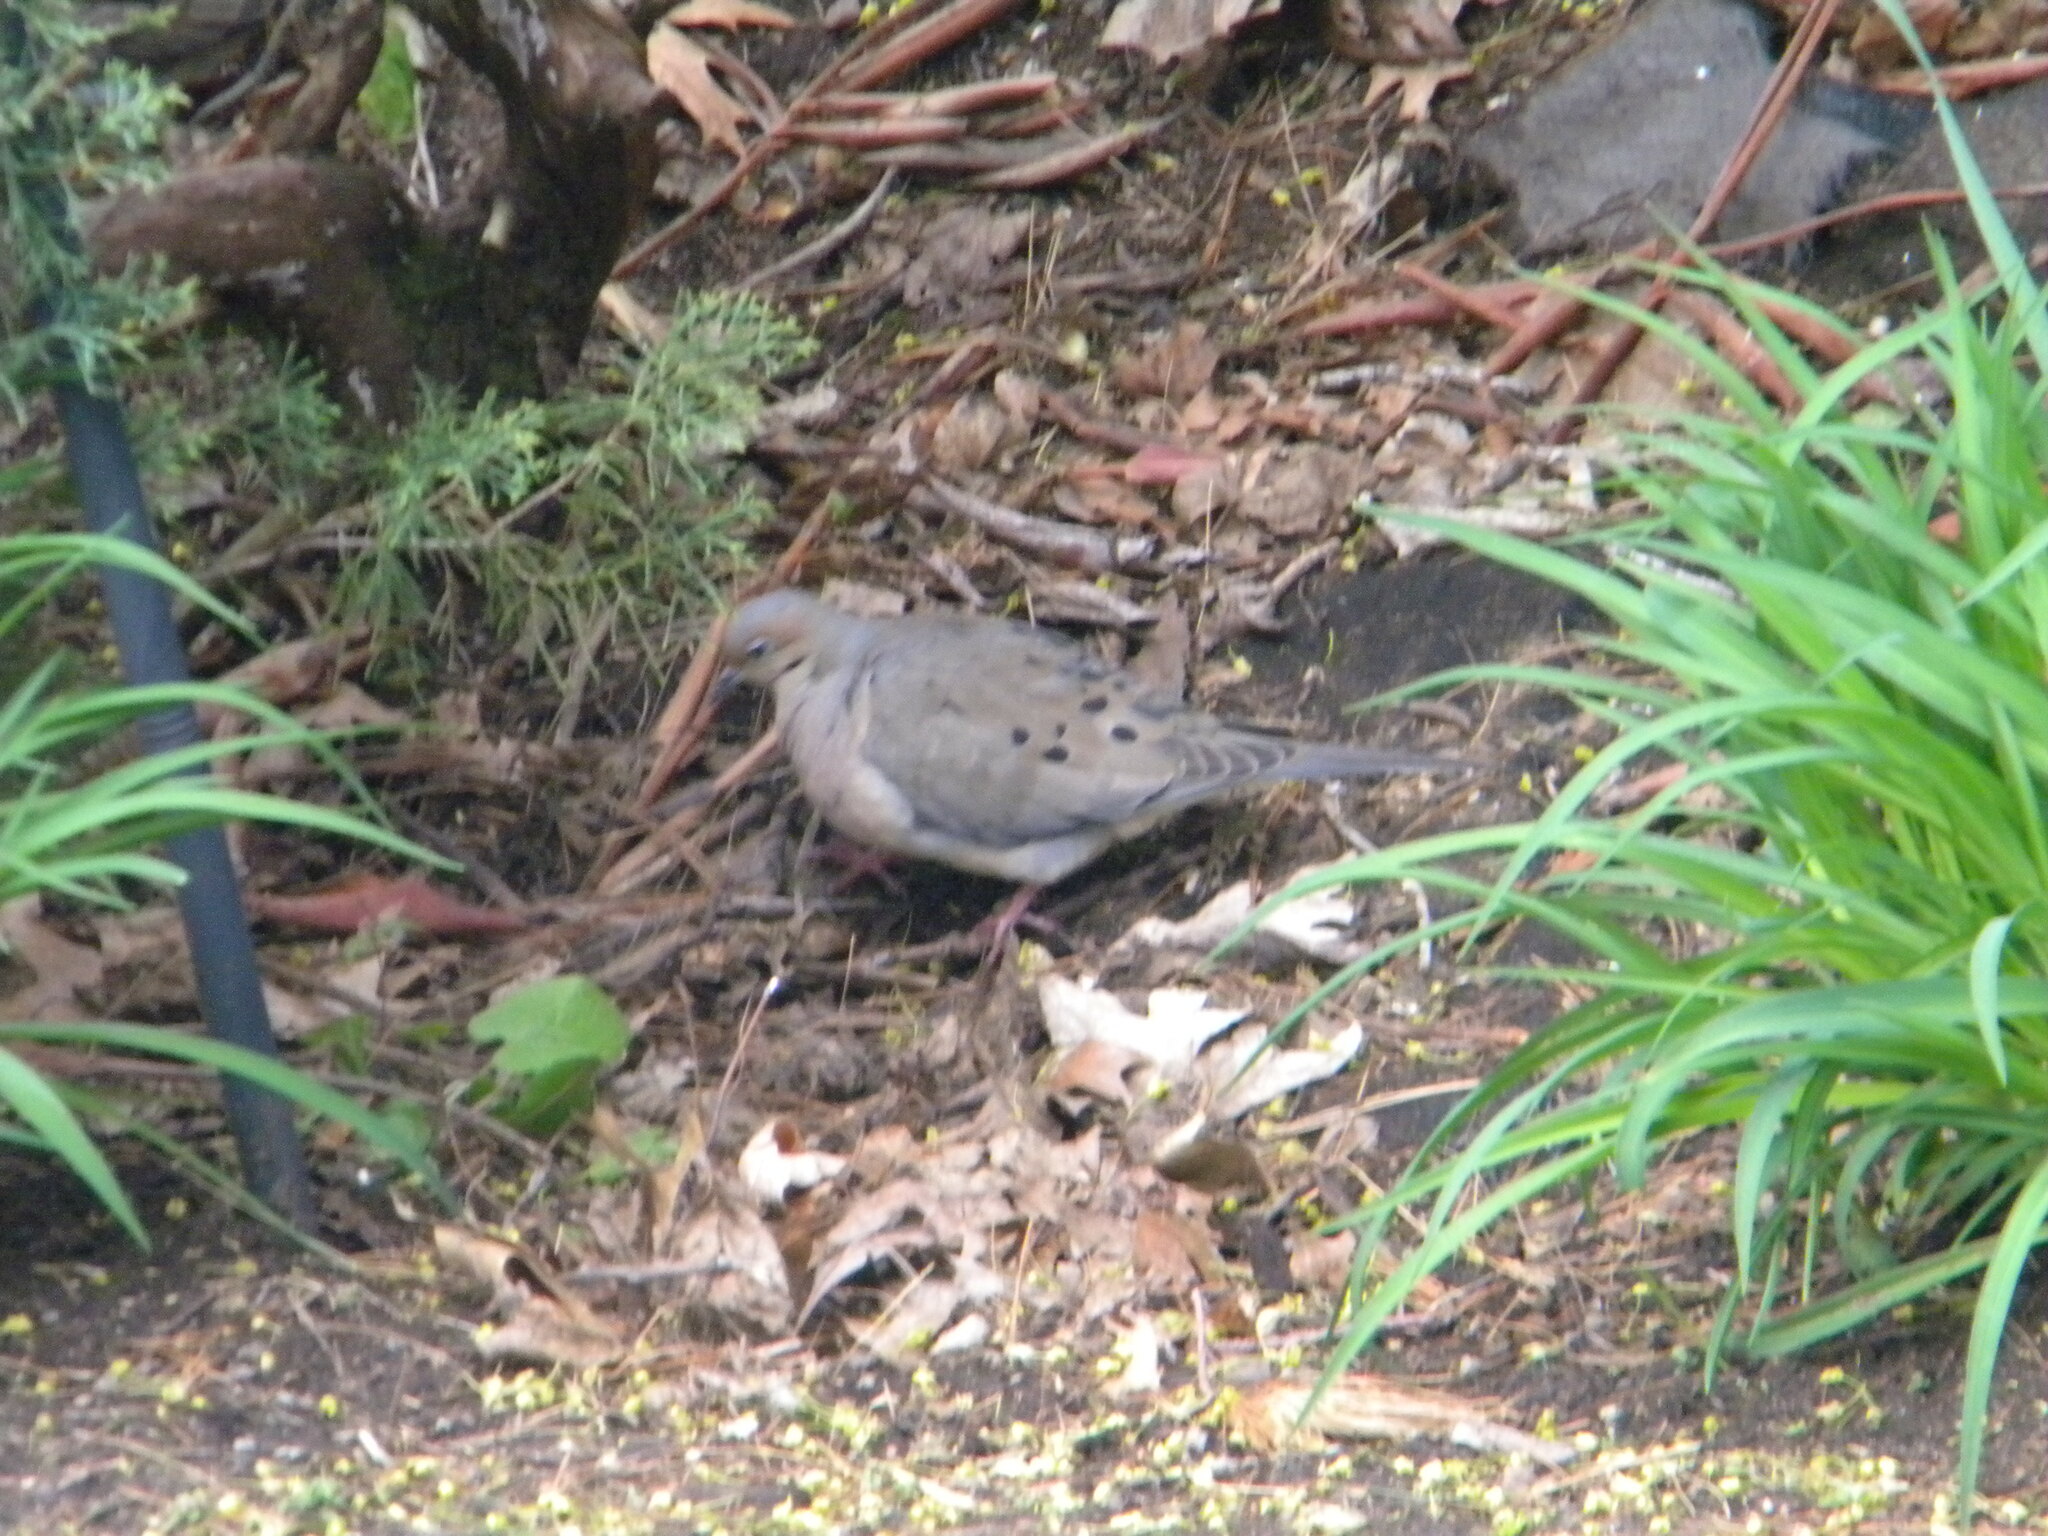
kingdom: Animalia
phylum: Chordata
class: Aves
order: Columbiformes
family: Columbidae
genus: Zenaida
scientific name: Zenaida macroura
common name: Mourning dove
